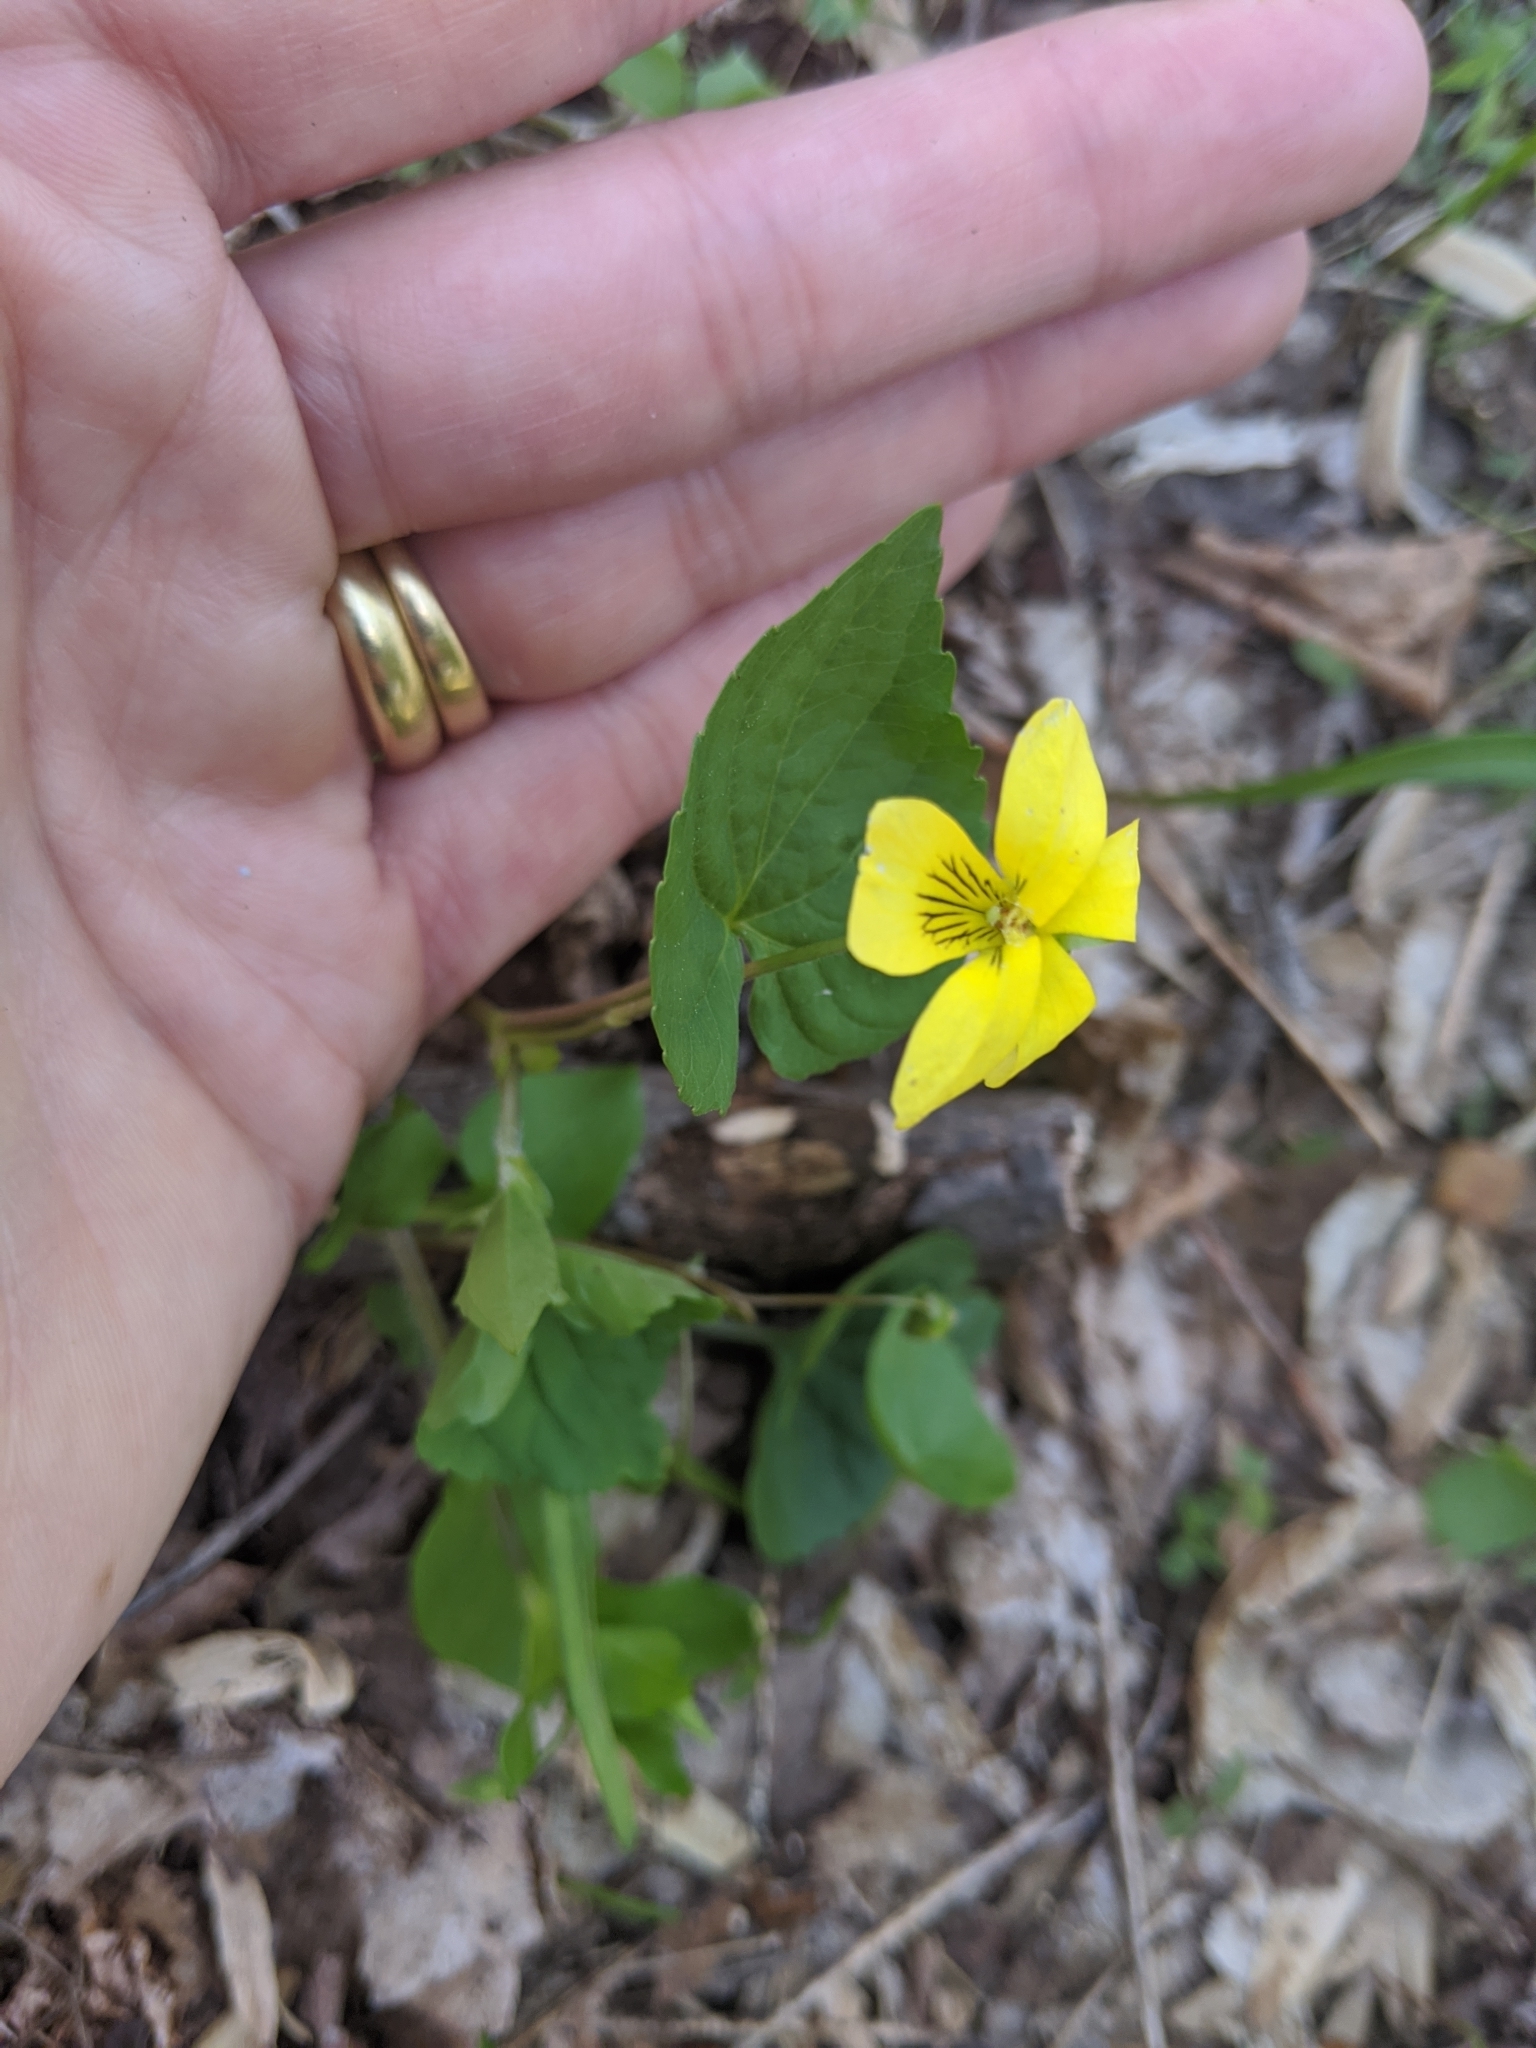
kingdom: Plantae
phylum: Tracheophyta
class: Magnoliopsida
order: Malpighiales
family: Violaceae
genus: Viola
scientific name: Viola eriocarpa
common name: Smooth yellow violet
